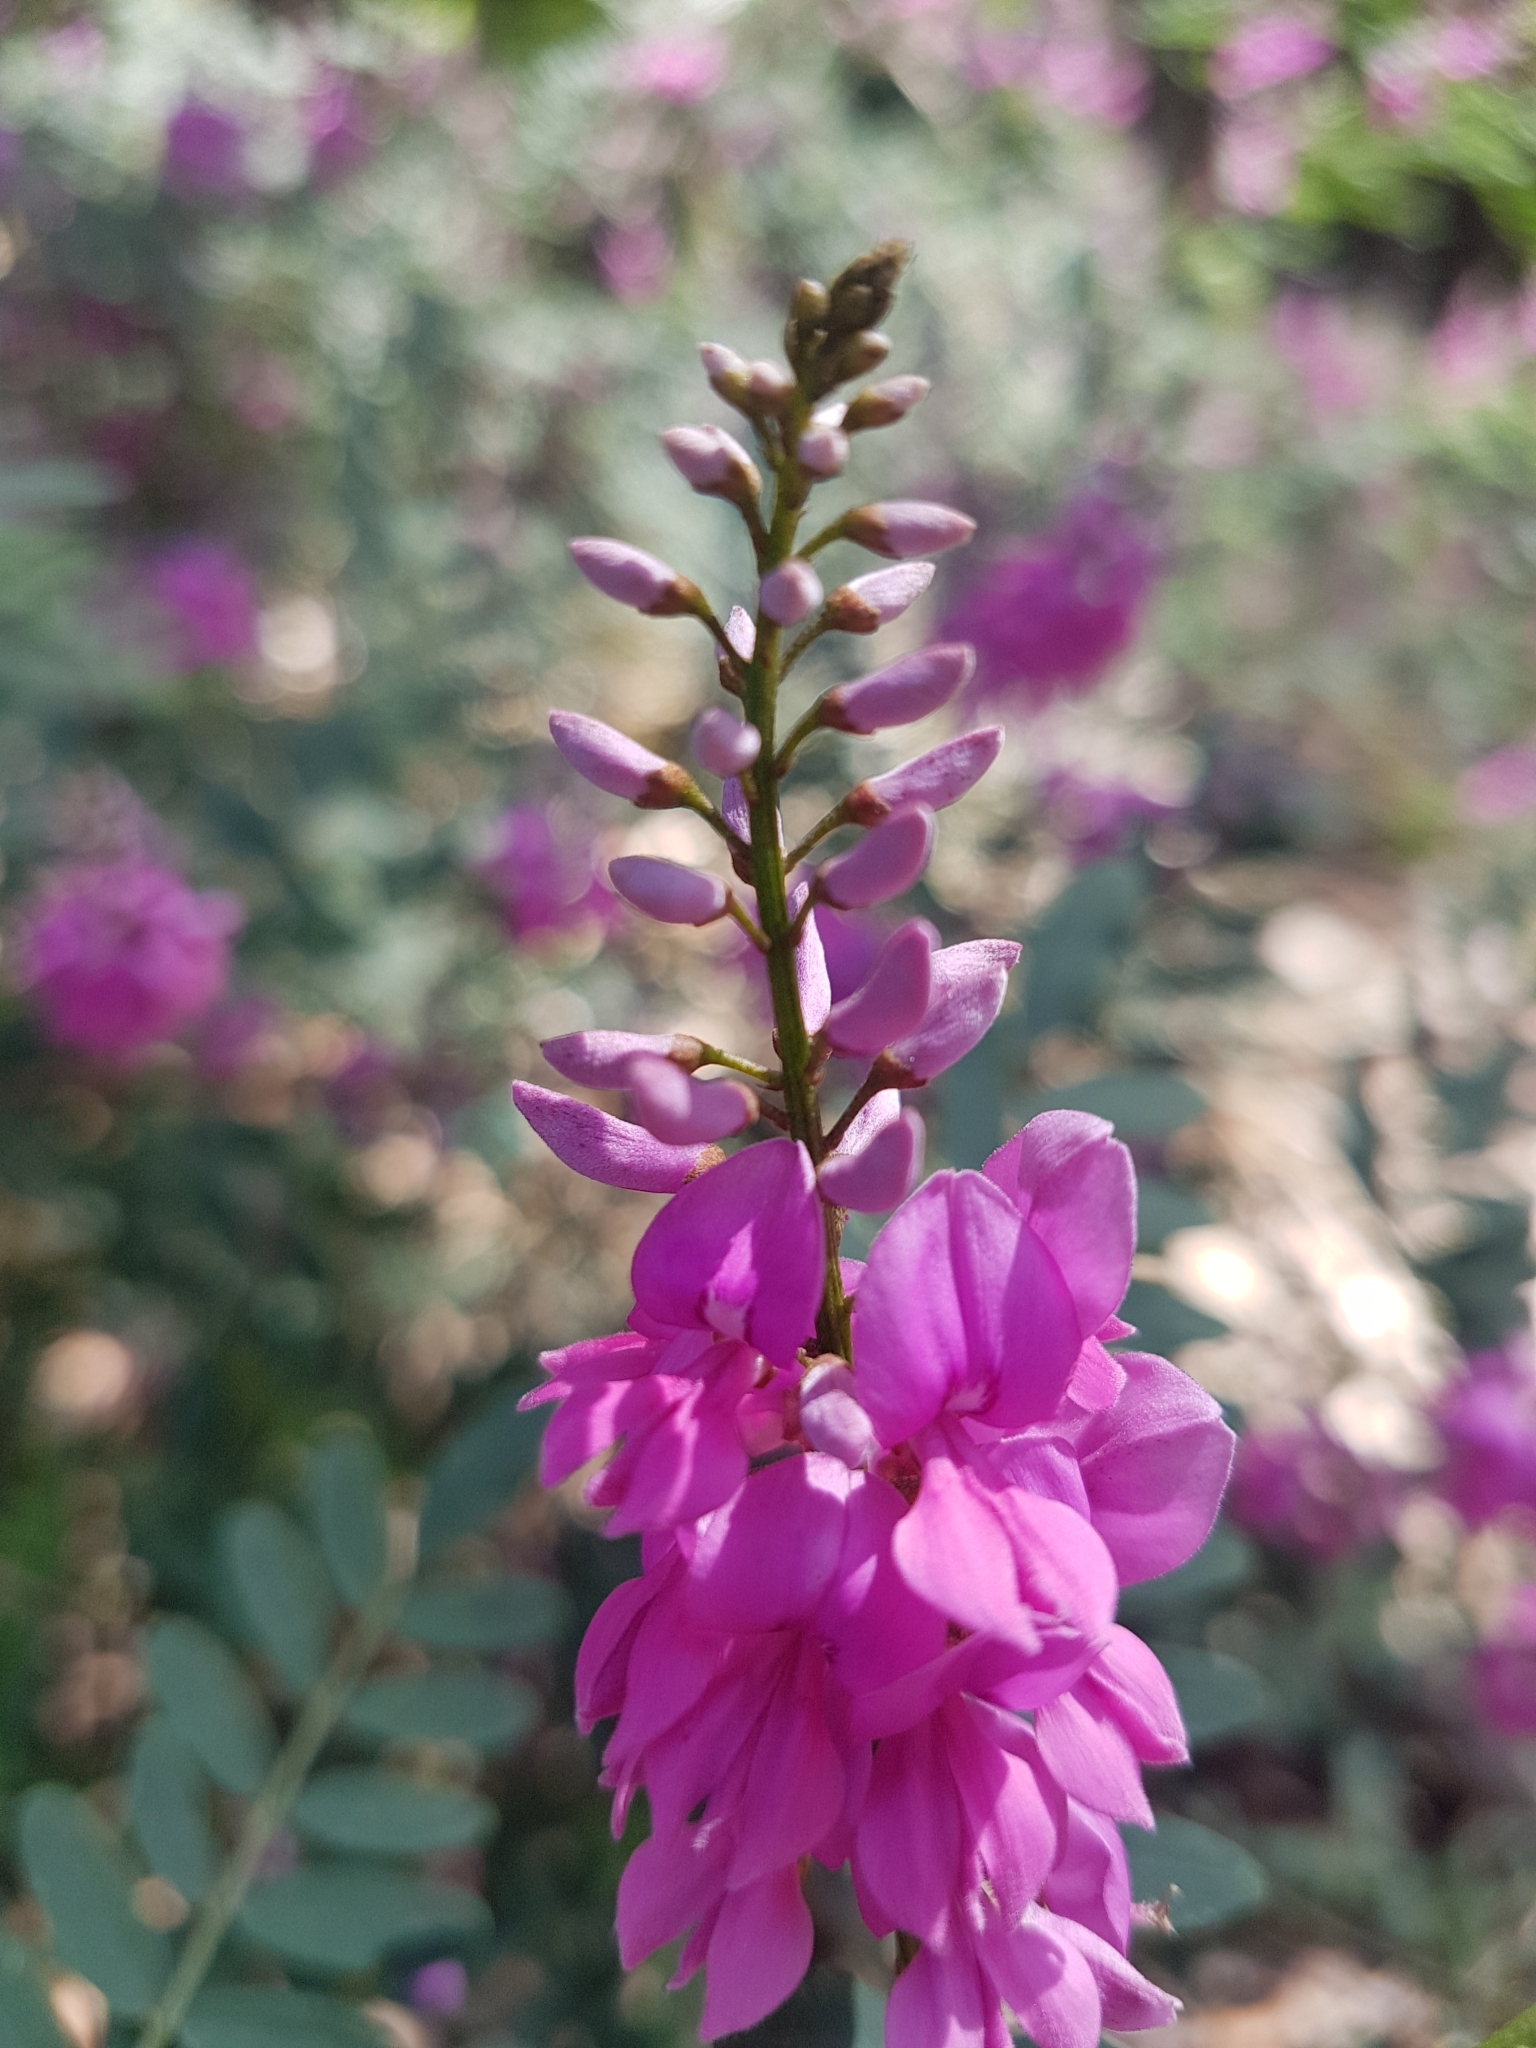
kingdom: Plantae
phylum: Tracheophyta
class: Magnoliopsida
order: Fabales
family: Fabaceae
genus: Indigofera
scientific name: Indigofera australis
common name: Australian indigo
